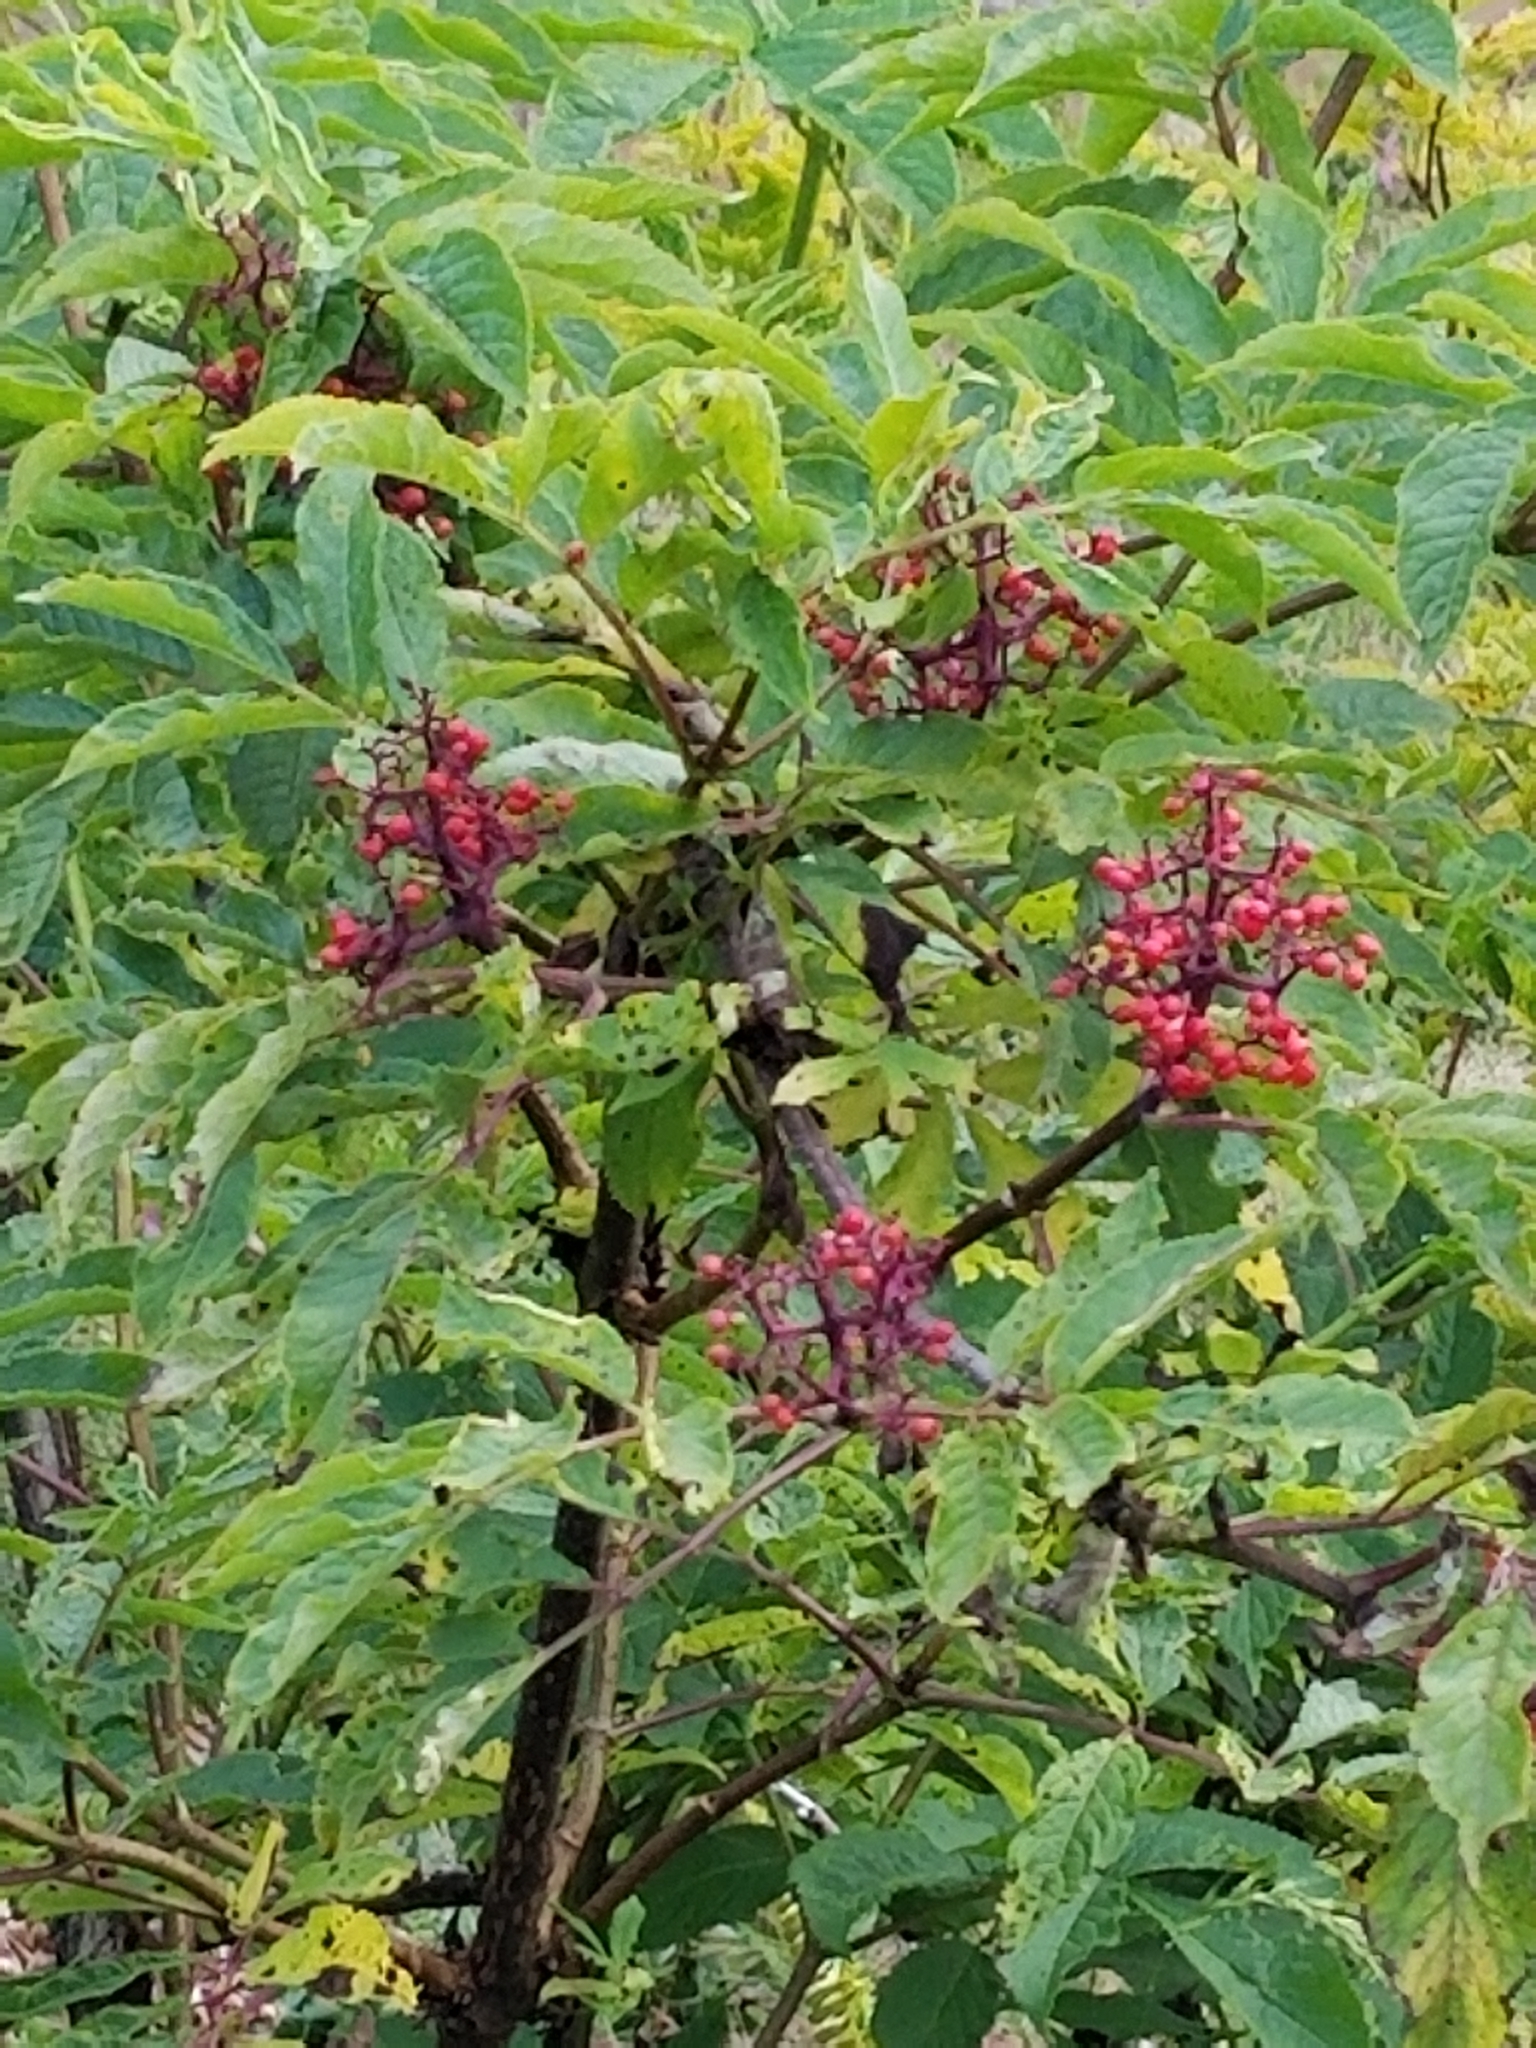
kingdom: Plantae
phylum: Tracheophyta
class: Magnoliopsida
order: Dipsacales
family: Viburnaceae
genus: Sambucus
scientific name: Sambucus racemosa
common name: Red-berried elder
